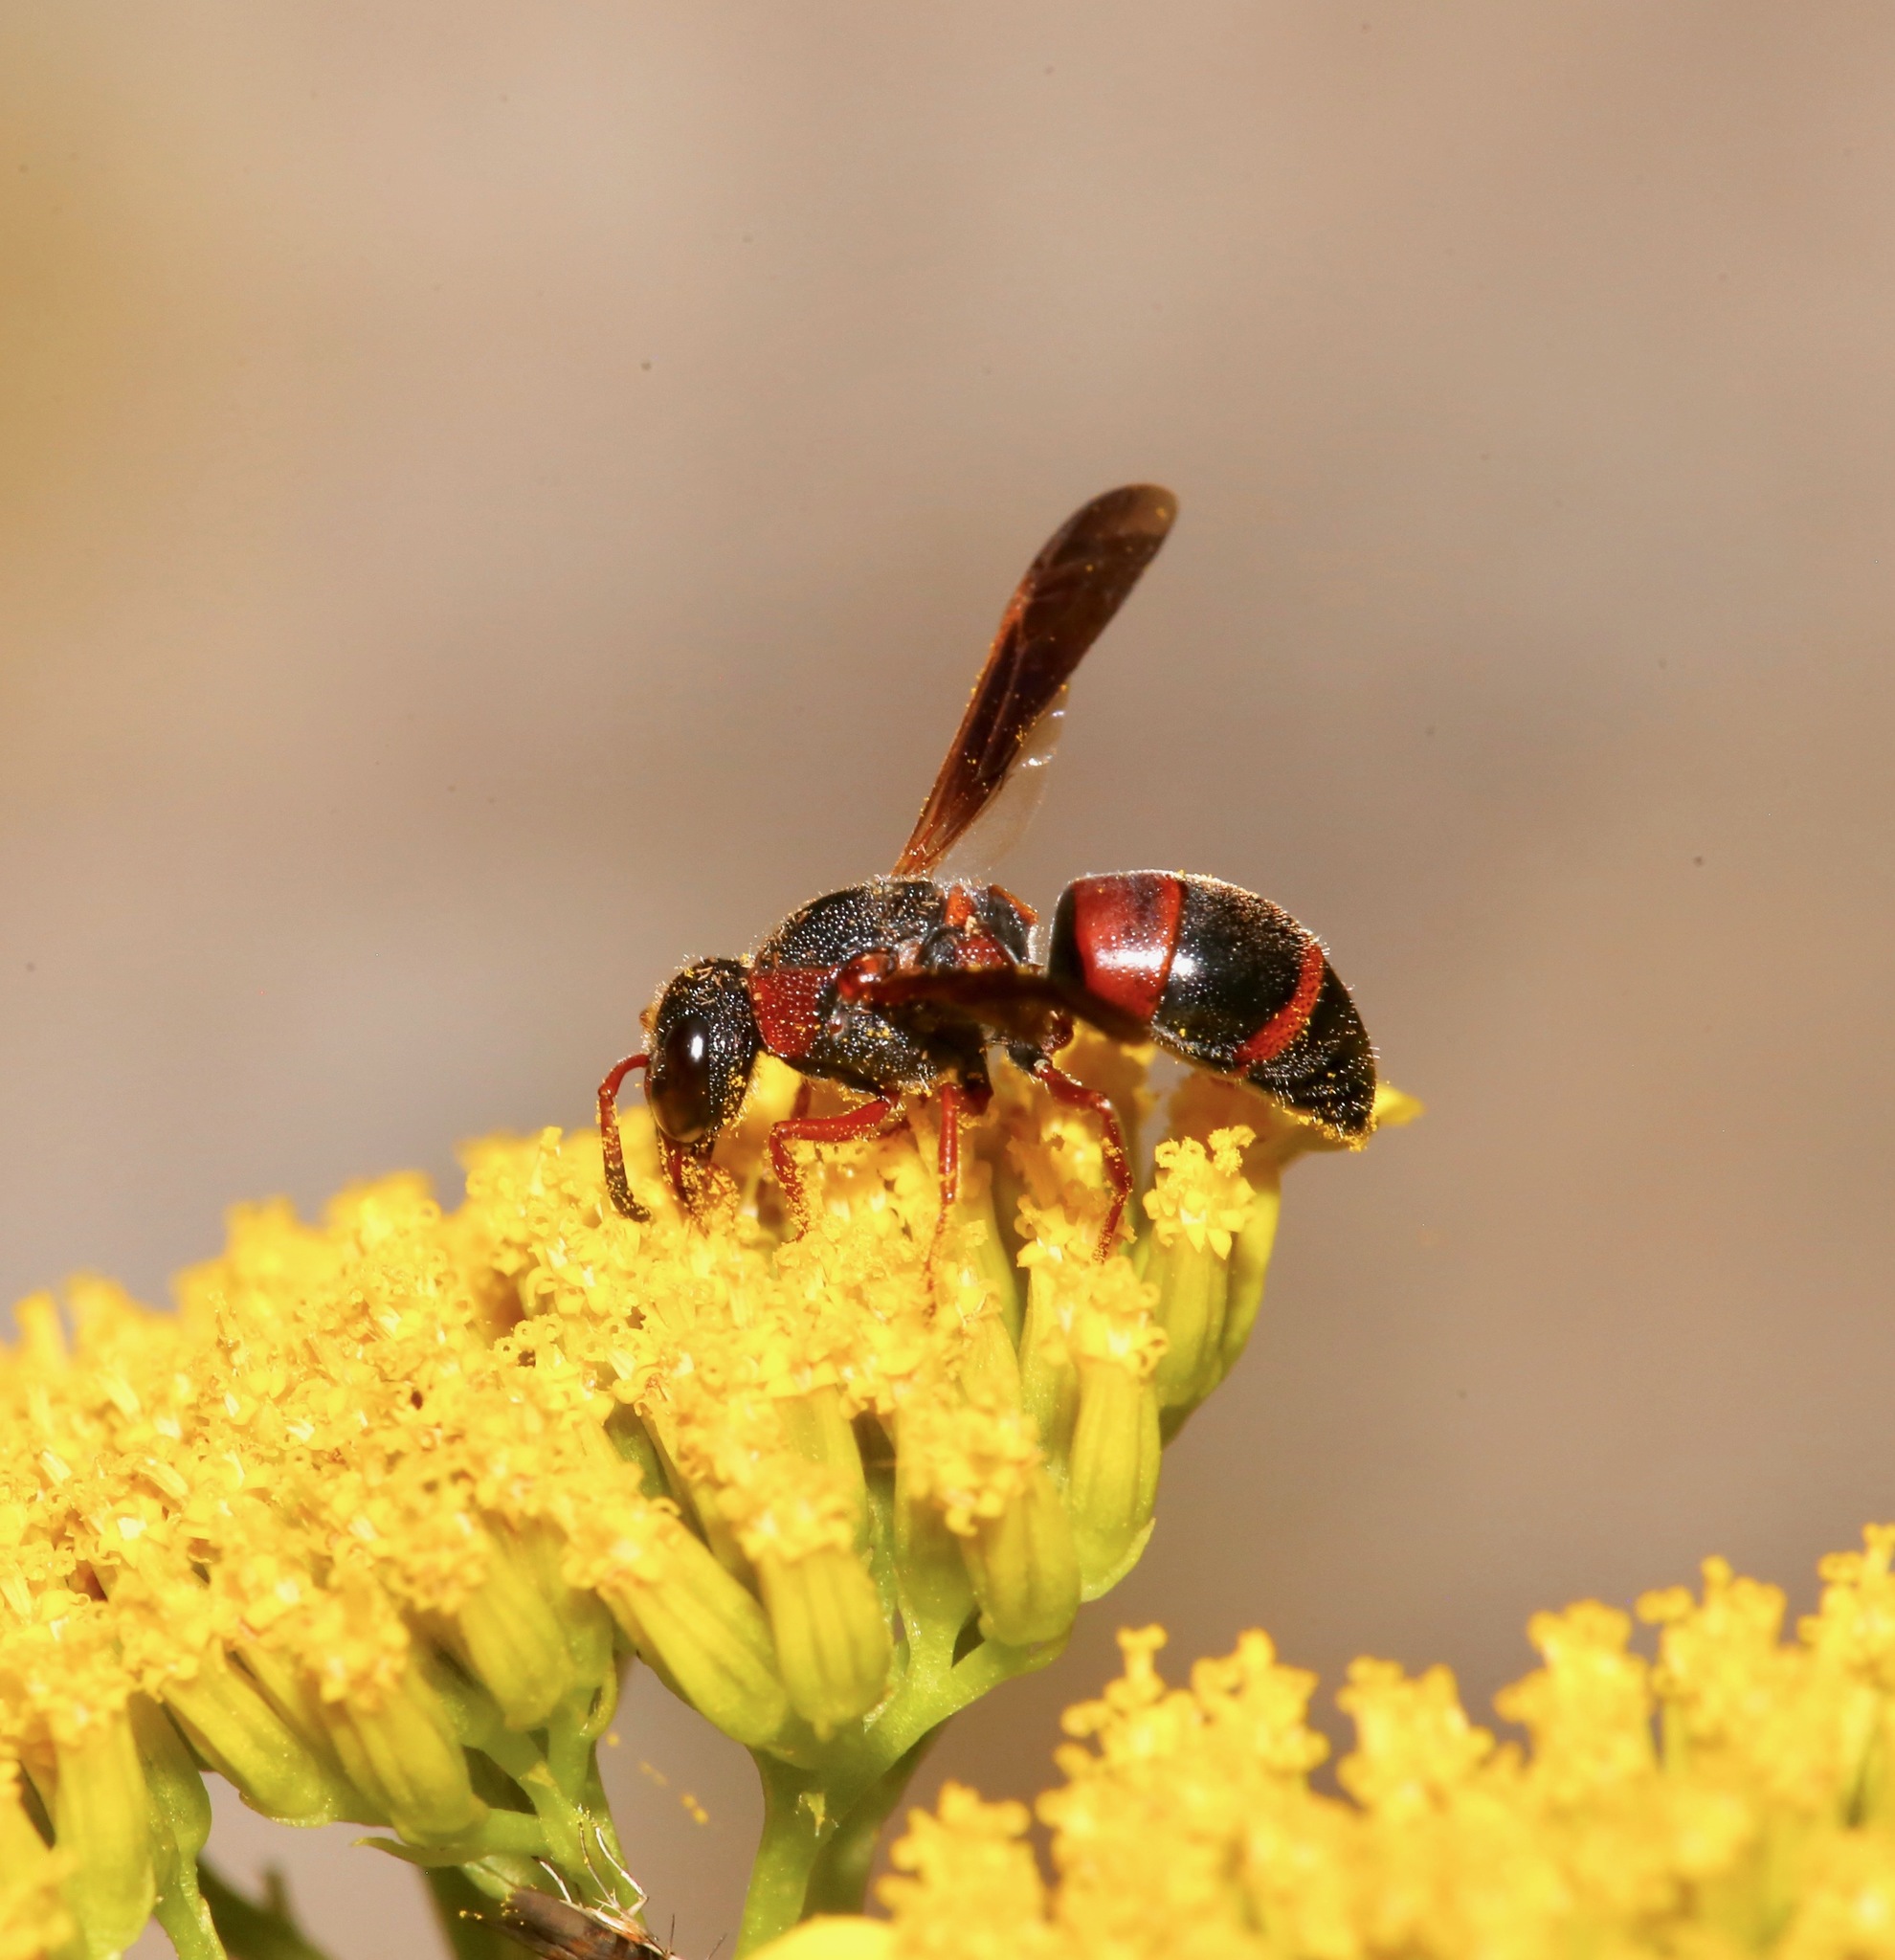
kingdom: Animalia
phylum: Arthropoda
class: Insecta
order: Hymenoptera
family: Eumenidae
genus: Pachodynerus
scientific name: Pachodynerus erynnis
